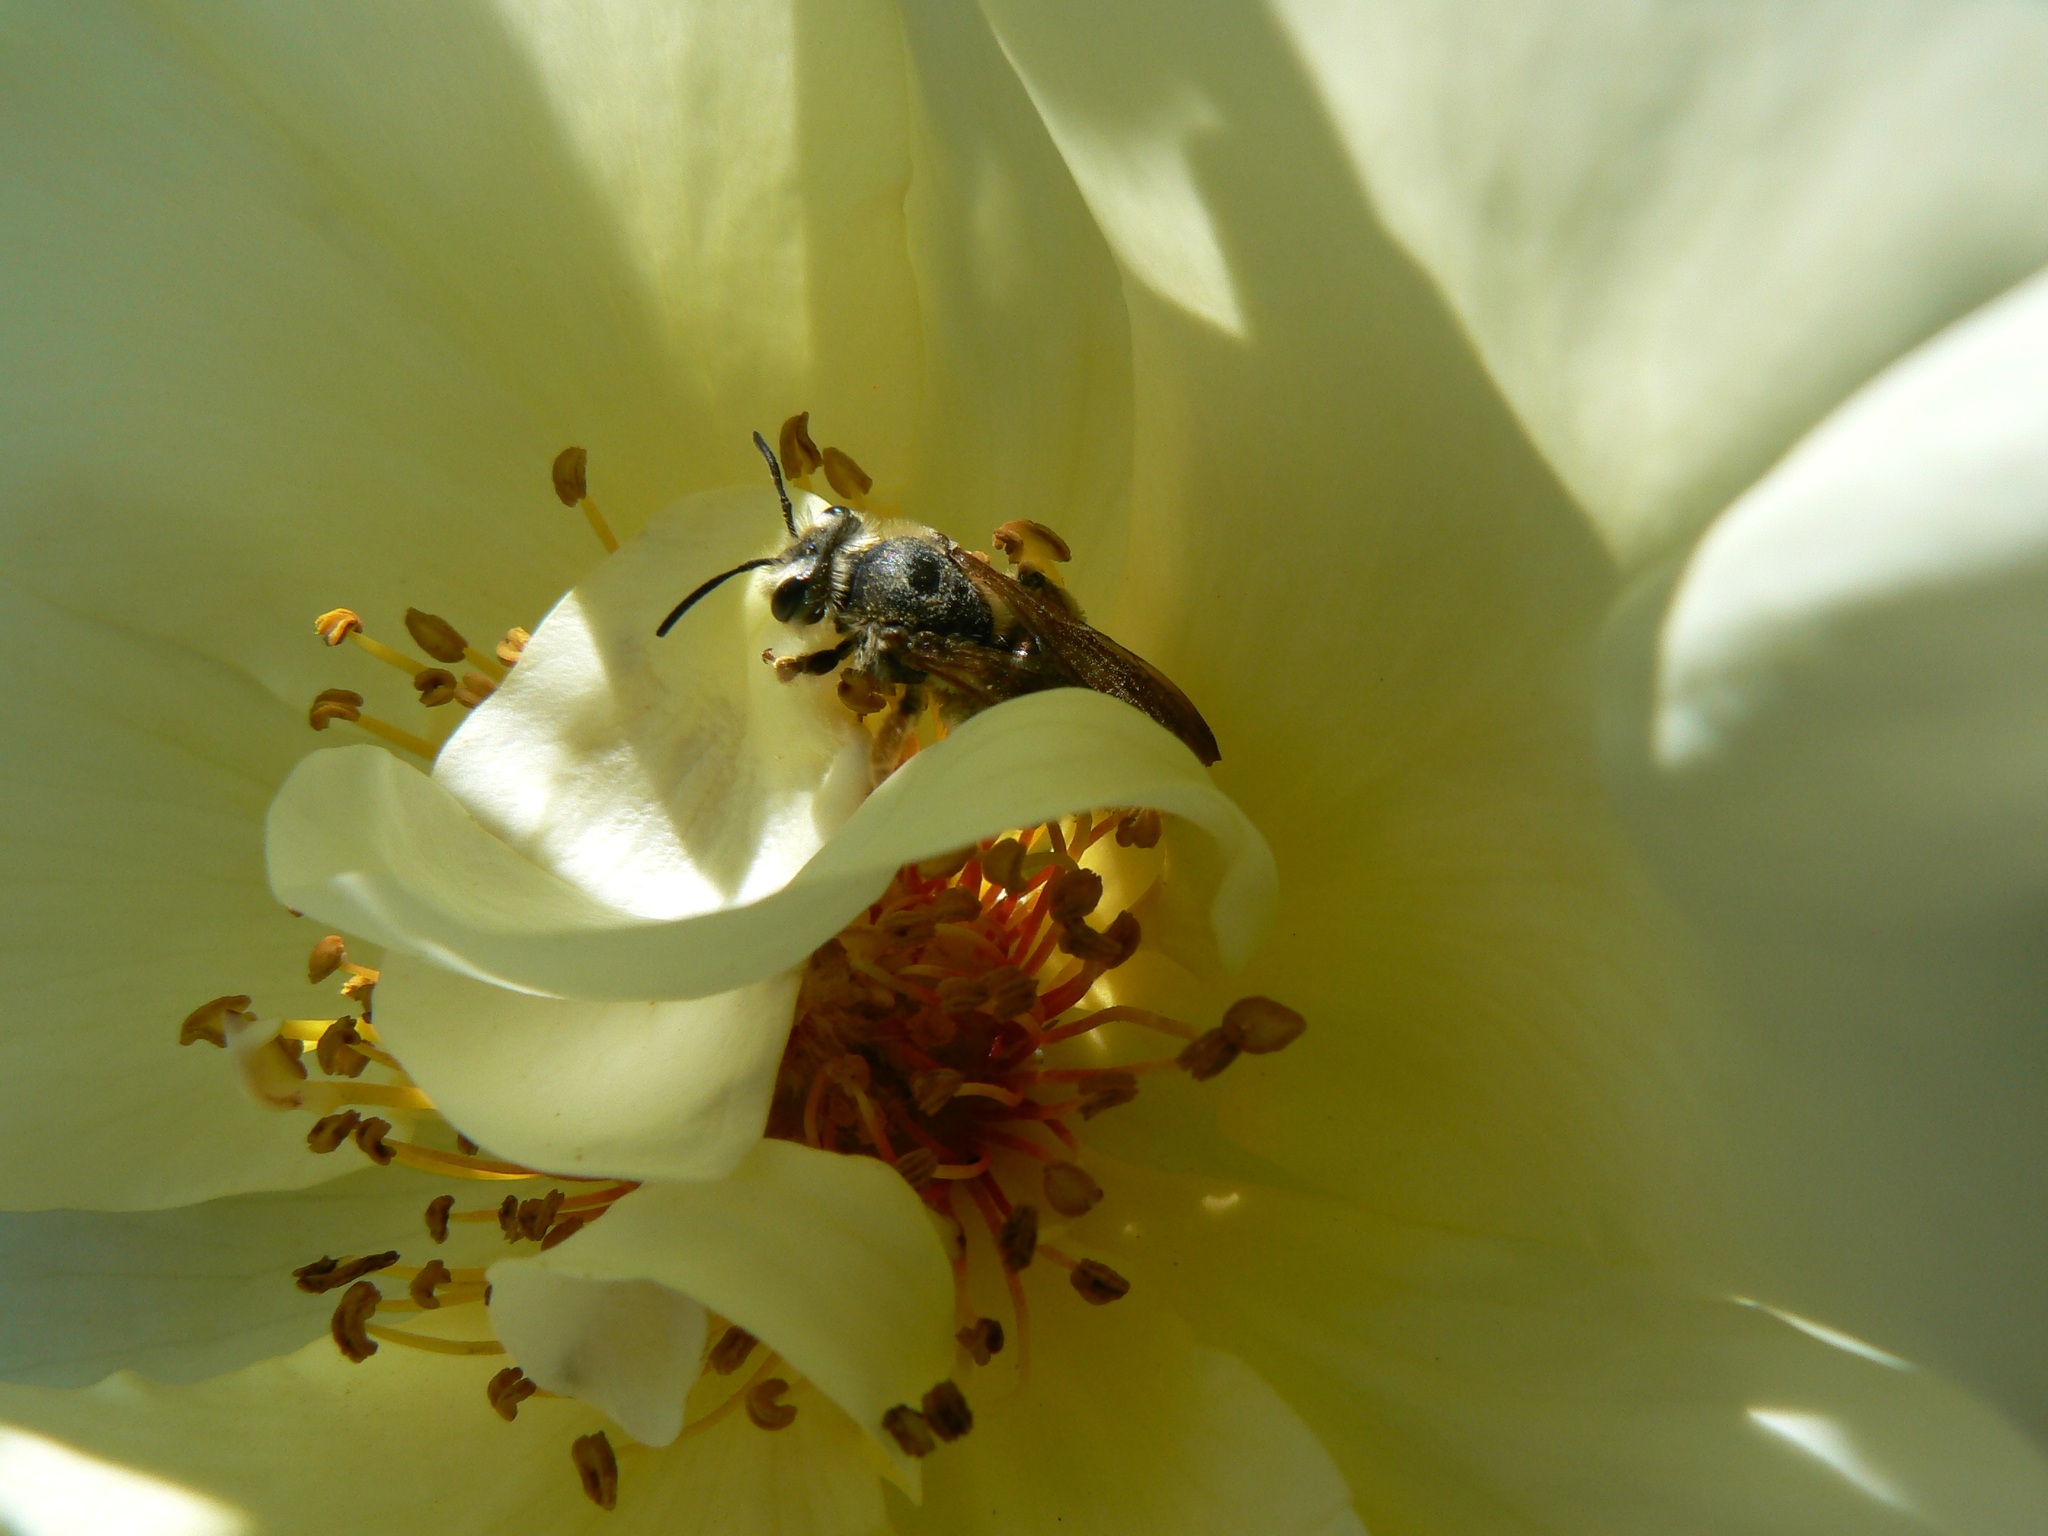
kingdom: Animalia
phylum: Arthropoda
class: Insecta
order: Hymenoptera
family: Andrenidae
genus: Andrena
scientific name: Andrena prunorum
